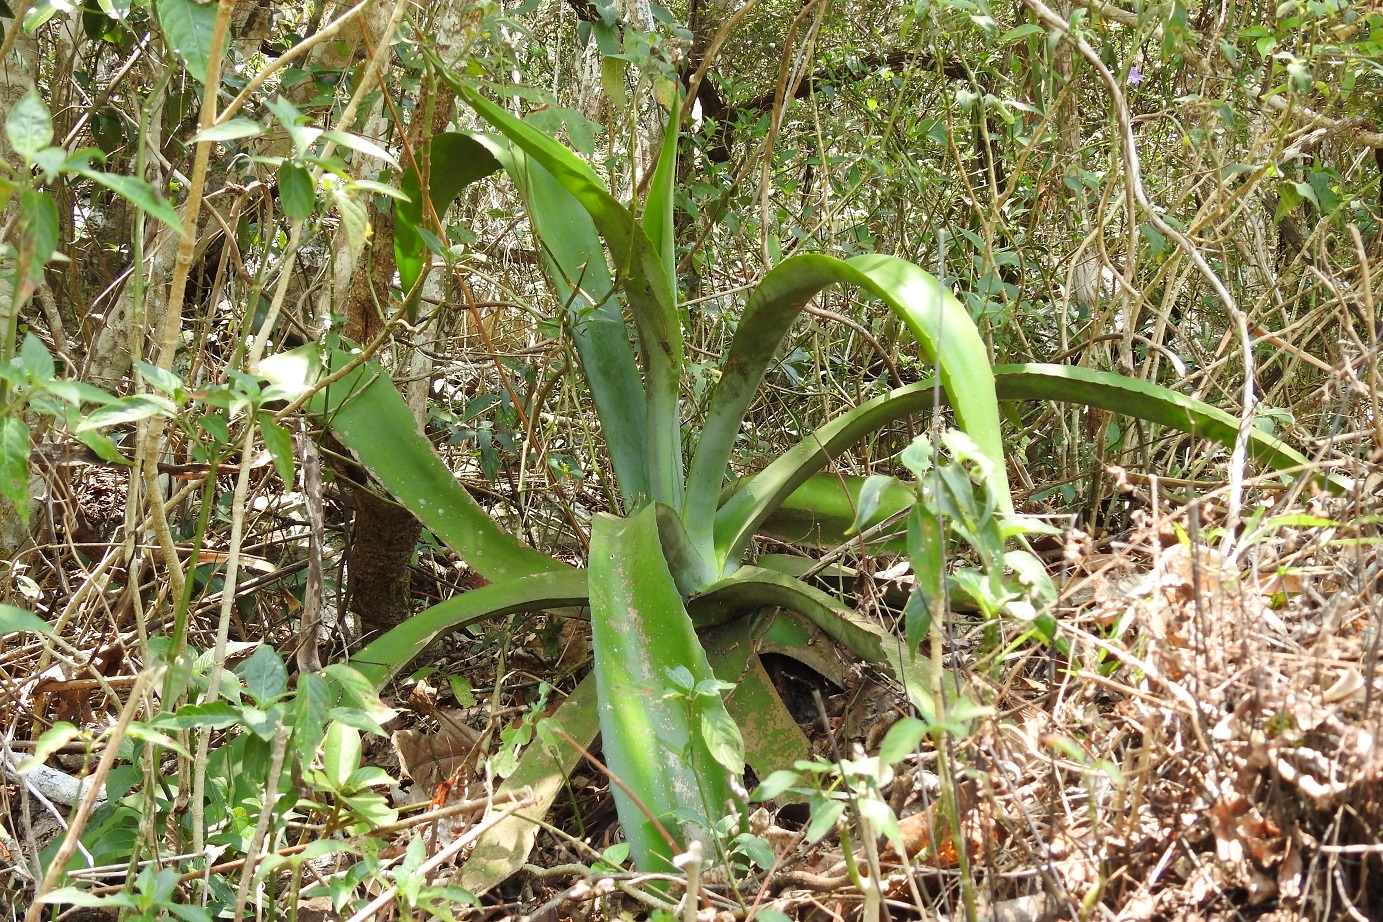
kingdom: Plantae
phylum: Tracheophyta
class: Liliopsida
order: Asparagales
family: Asparagaceae
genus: Agave
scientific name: Agave kewensis
